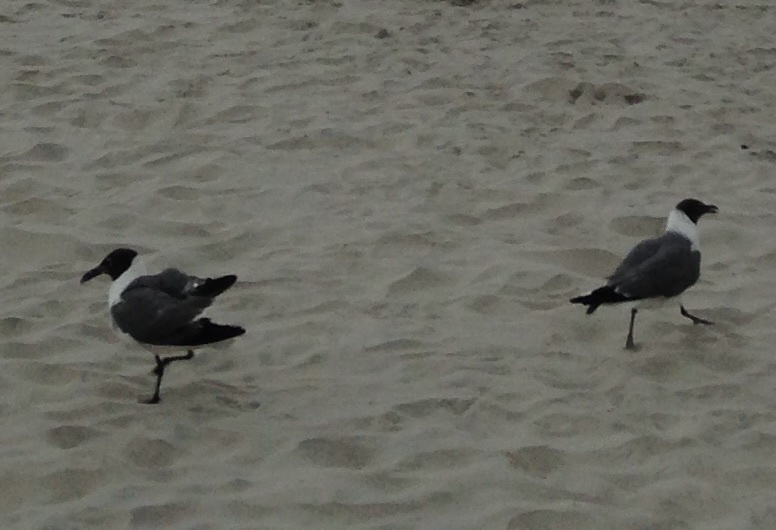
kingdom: Animalia
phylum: Chordata
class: Aves
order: Charadriiformes
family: Laridae
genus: Leucophaeus
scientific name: Leucophaeus atricilla
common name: Laughing gull
